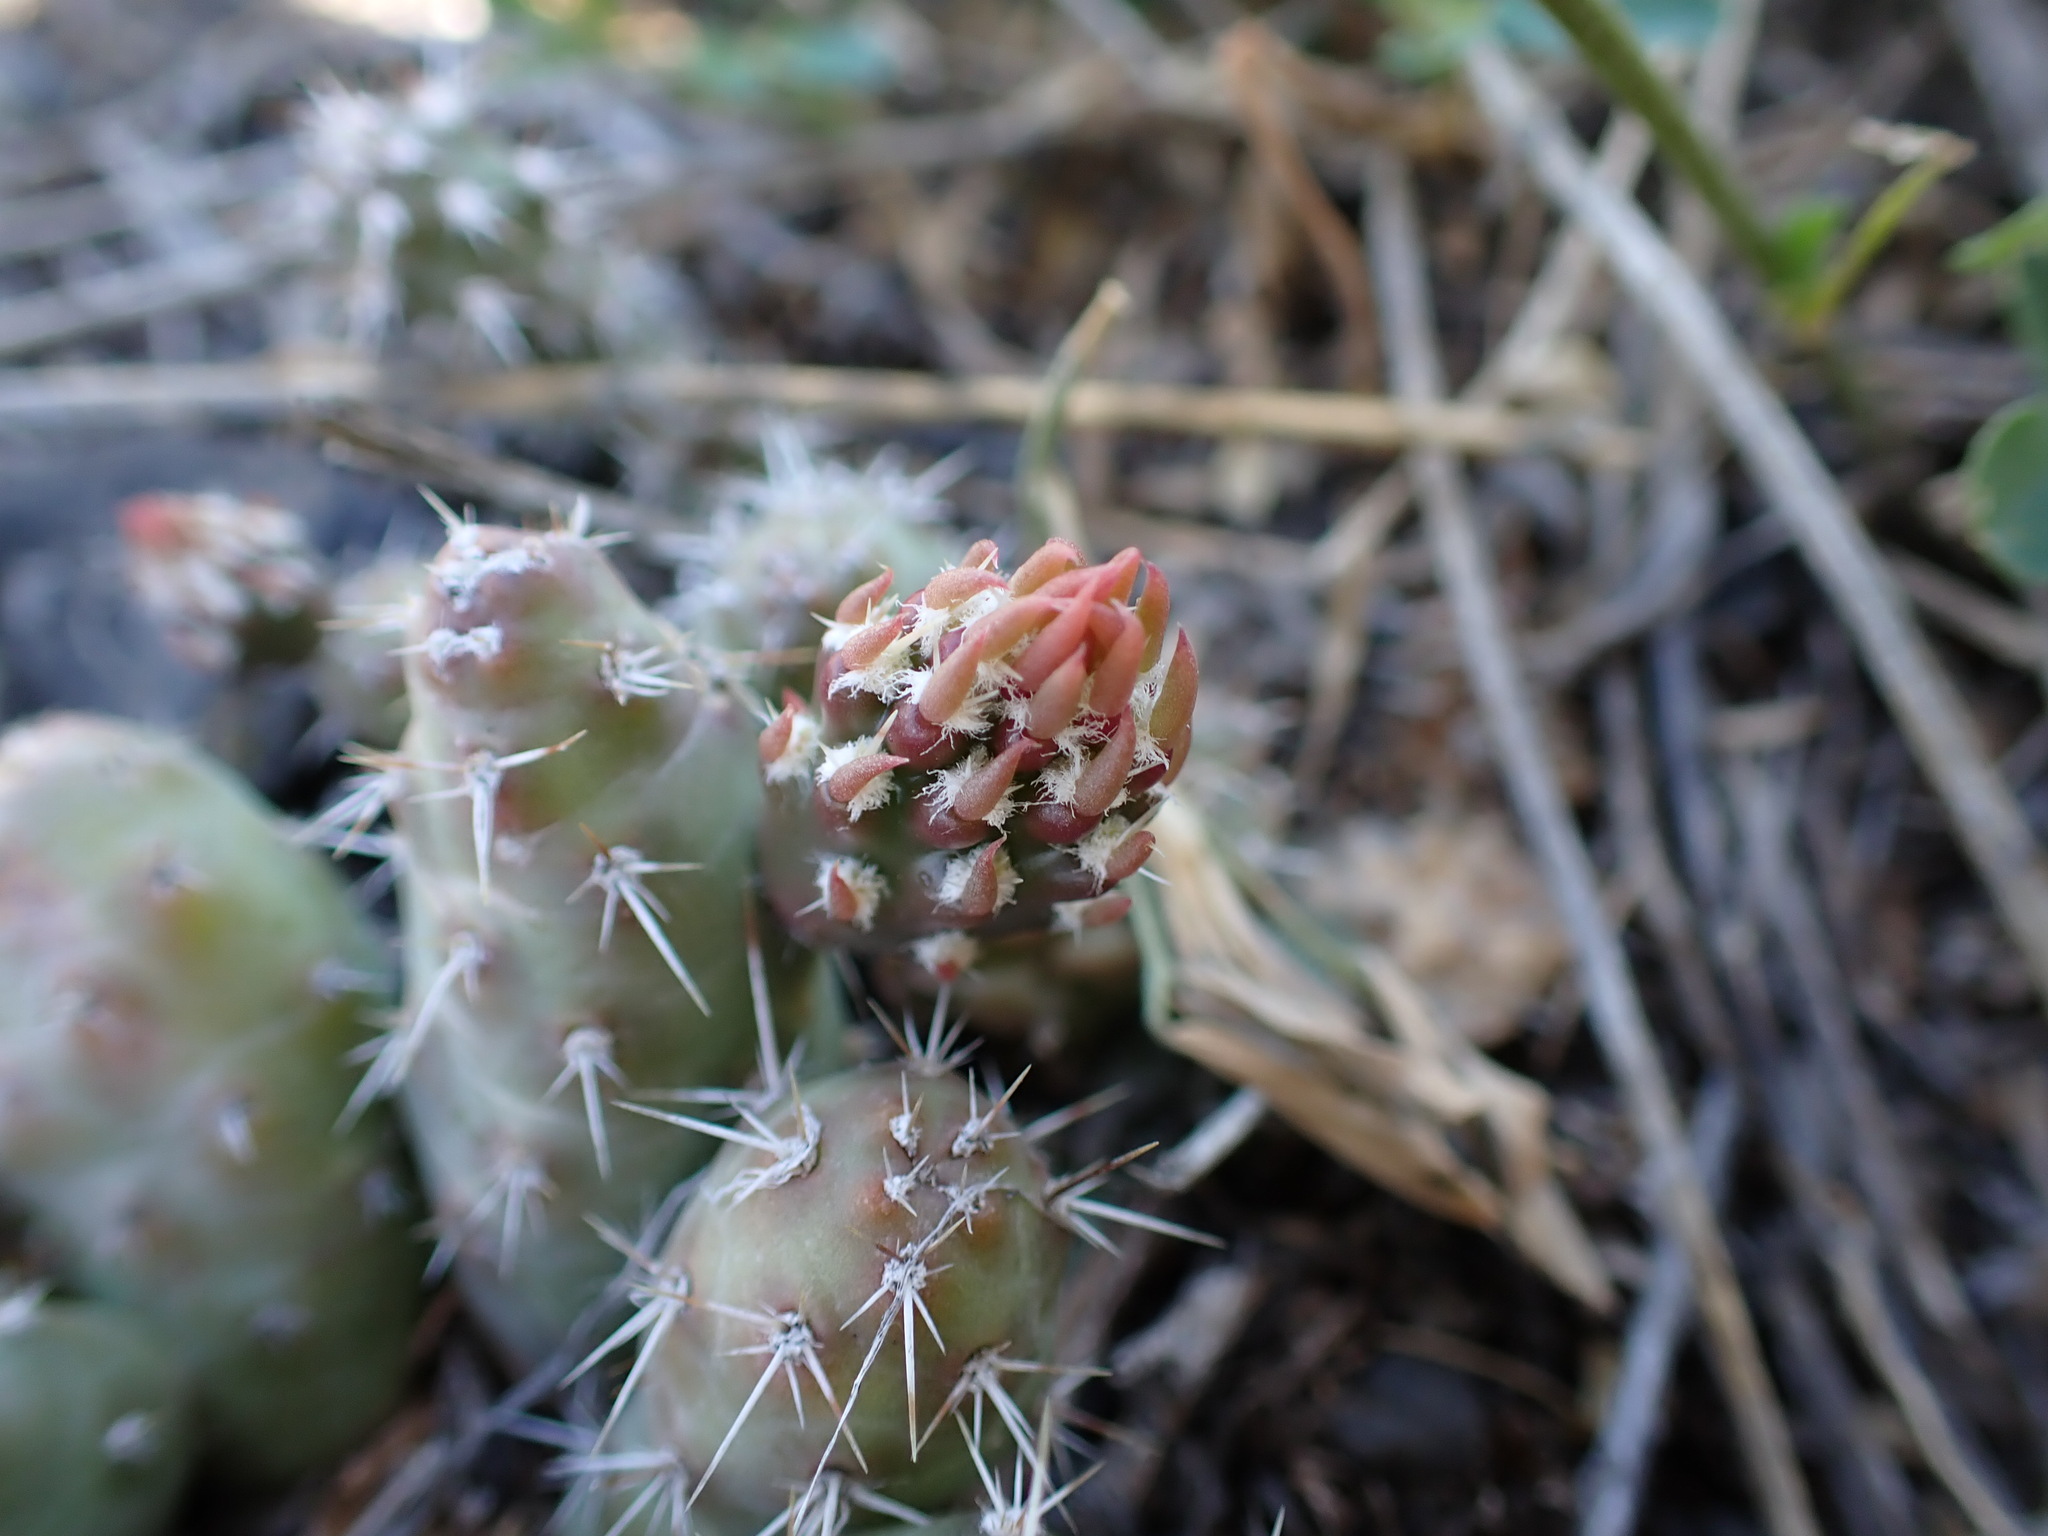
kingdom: Plantae
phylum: Tracheophyta
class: Magnoliopsida
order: Caryophyllales
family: Cactaceae
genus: Opuntia
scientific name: Opuntia fragilis
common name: Brittle cactus
